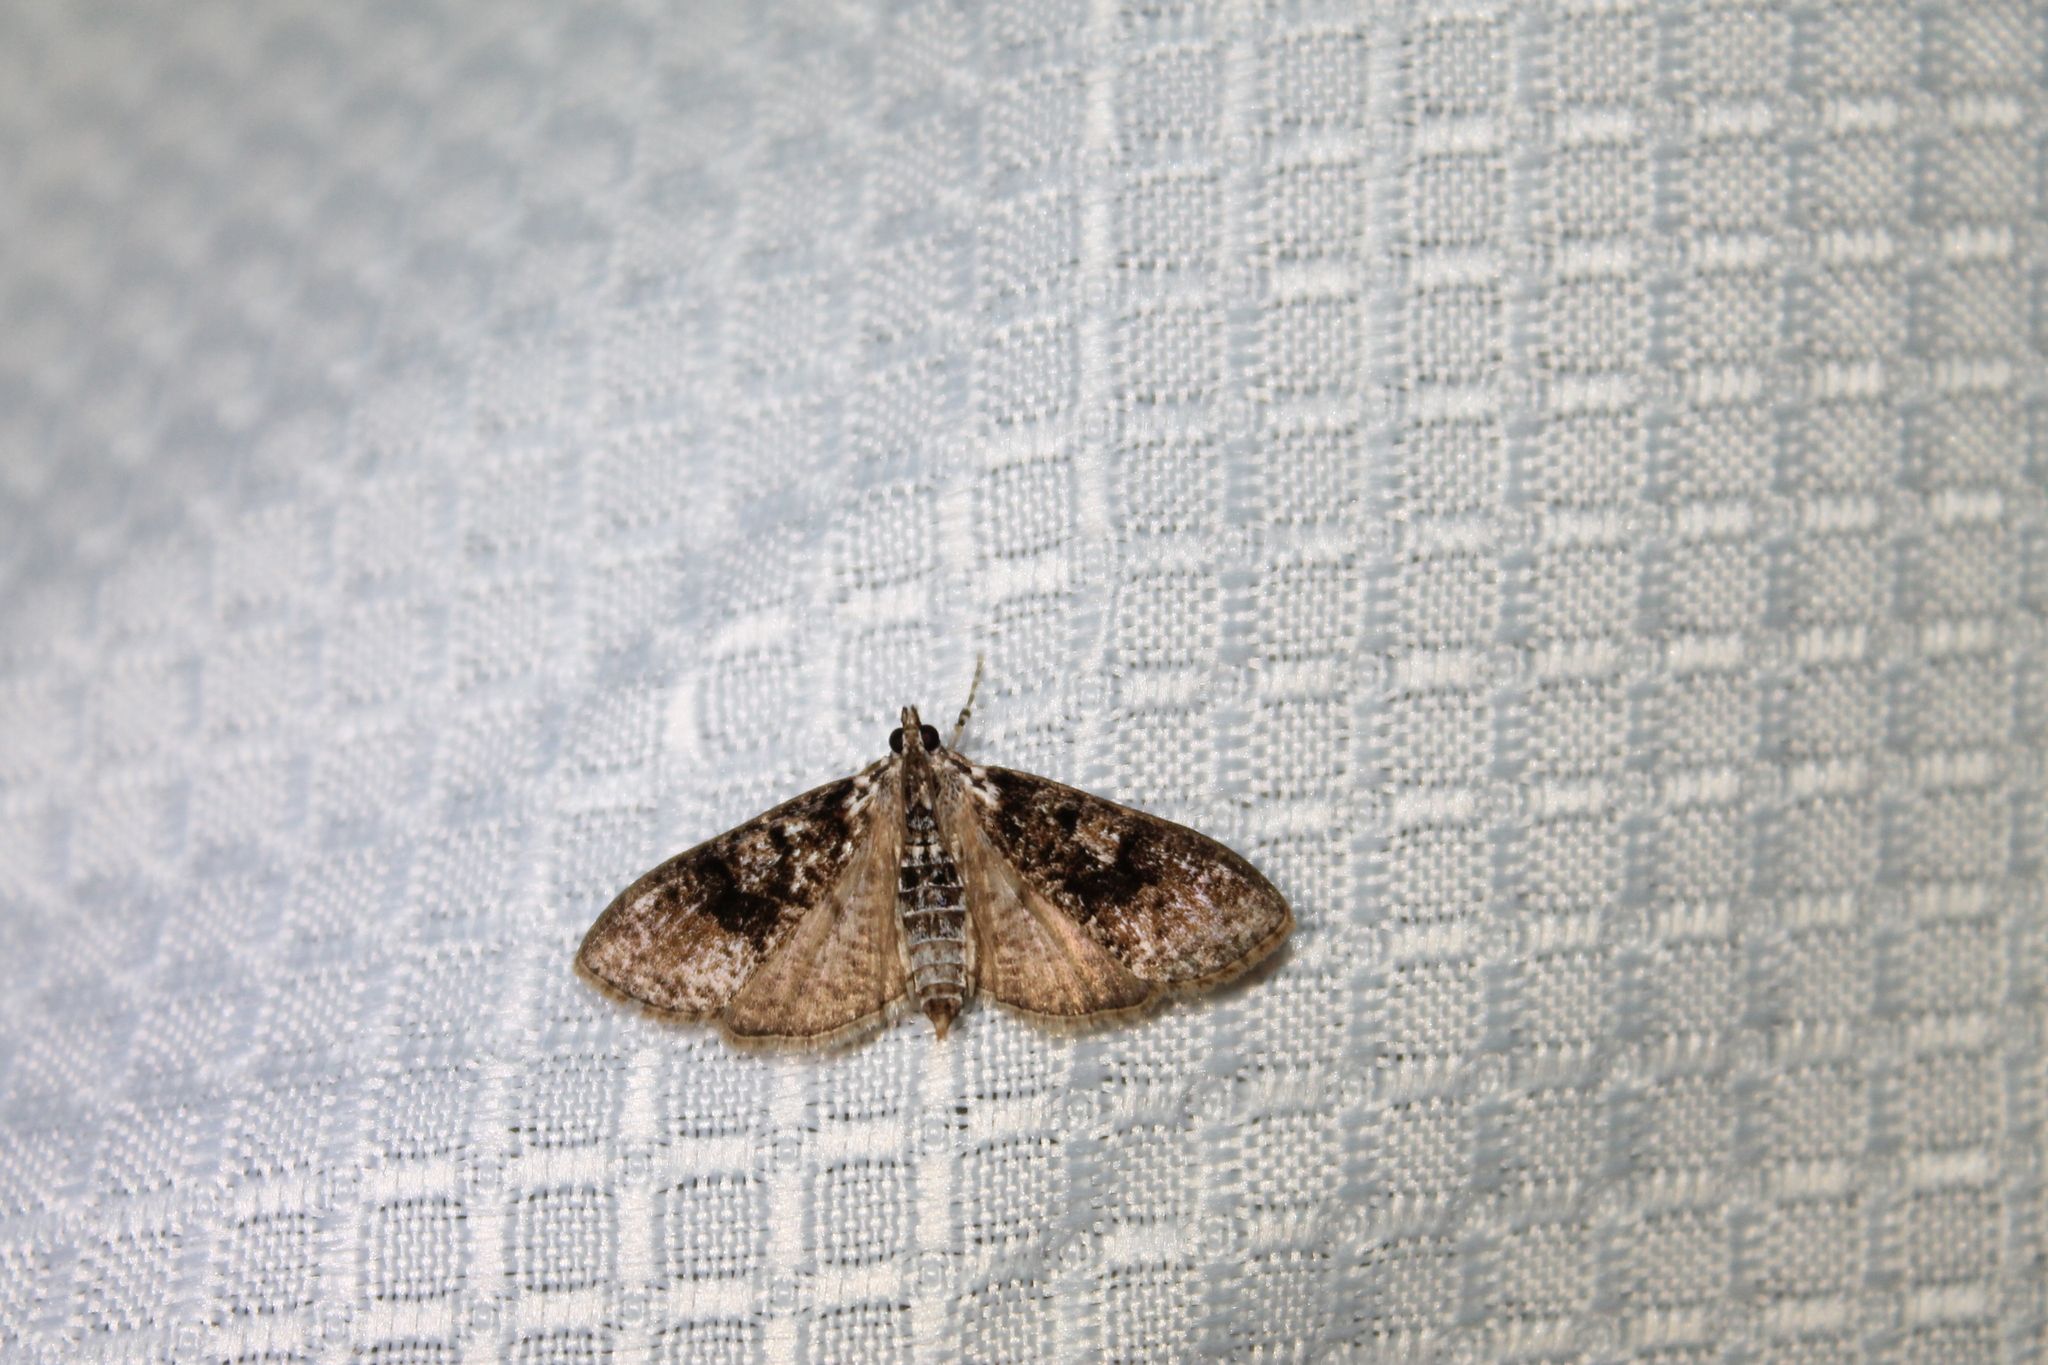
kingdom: Animalia
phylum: Arthropoda
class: Insecta
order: Lepidoptera
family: Crambidae
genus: Palpita
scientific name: Palpita magniferalis
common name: Splendid palpita moth
